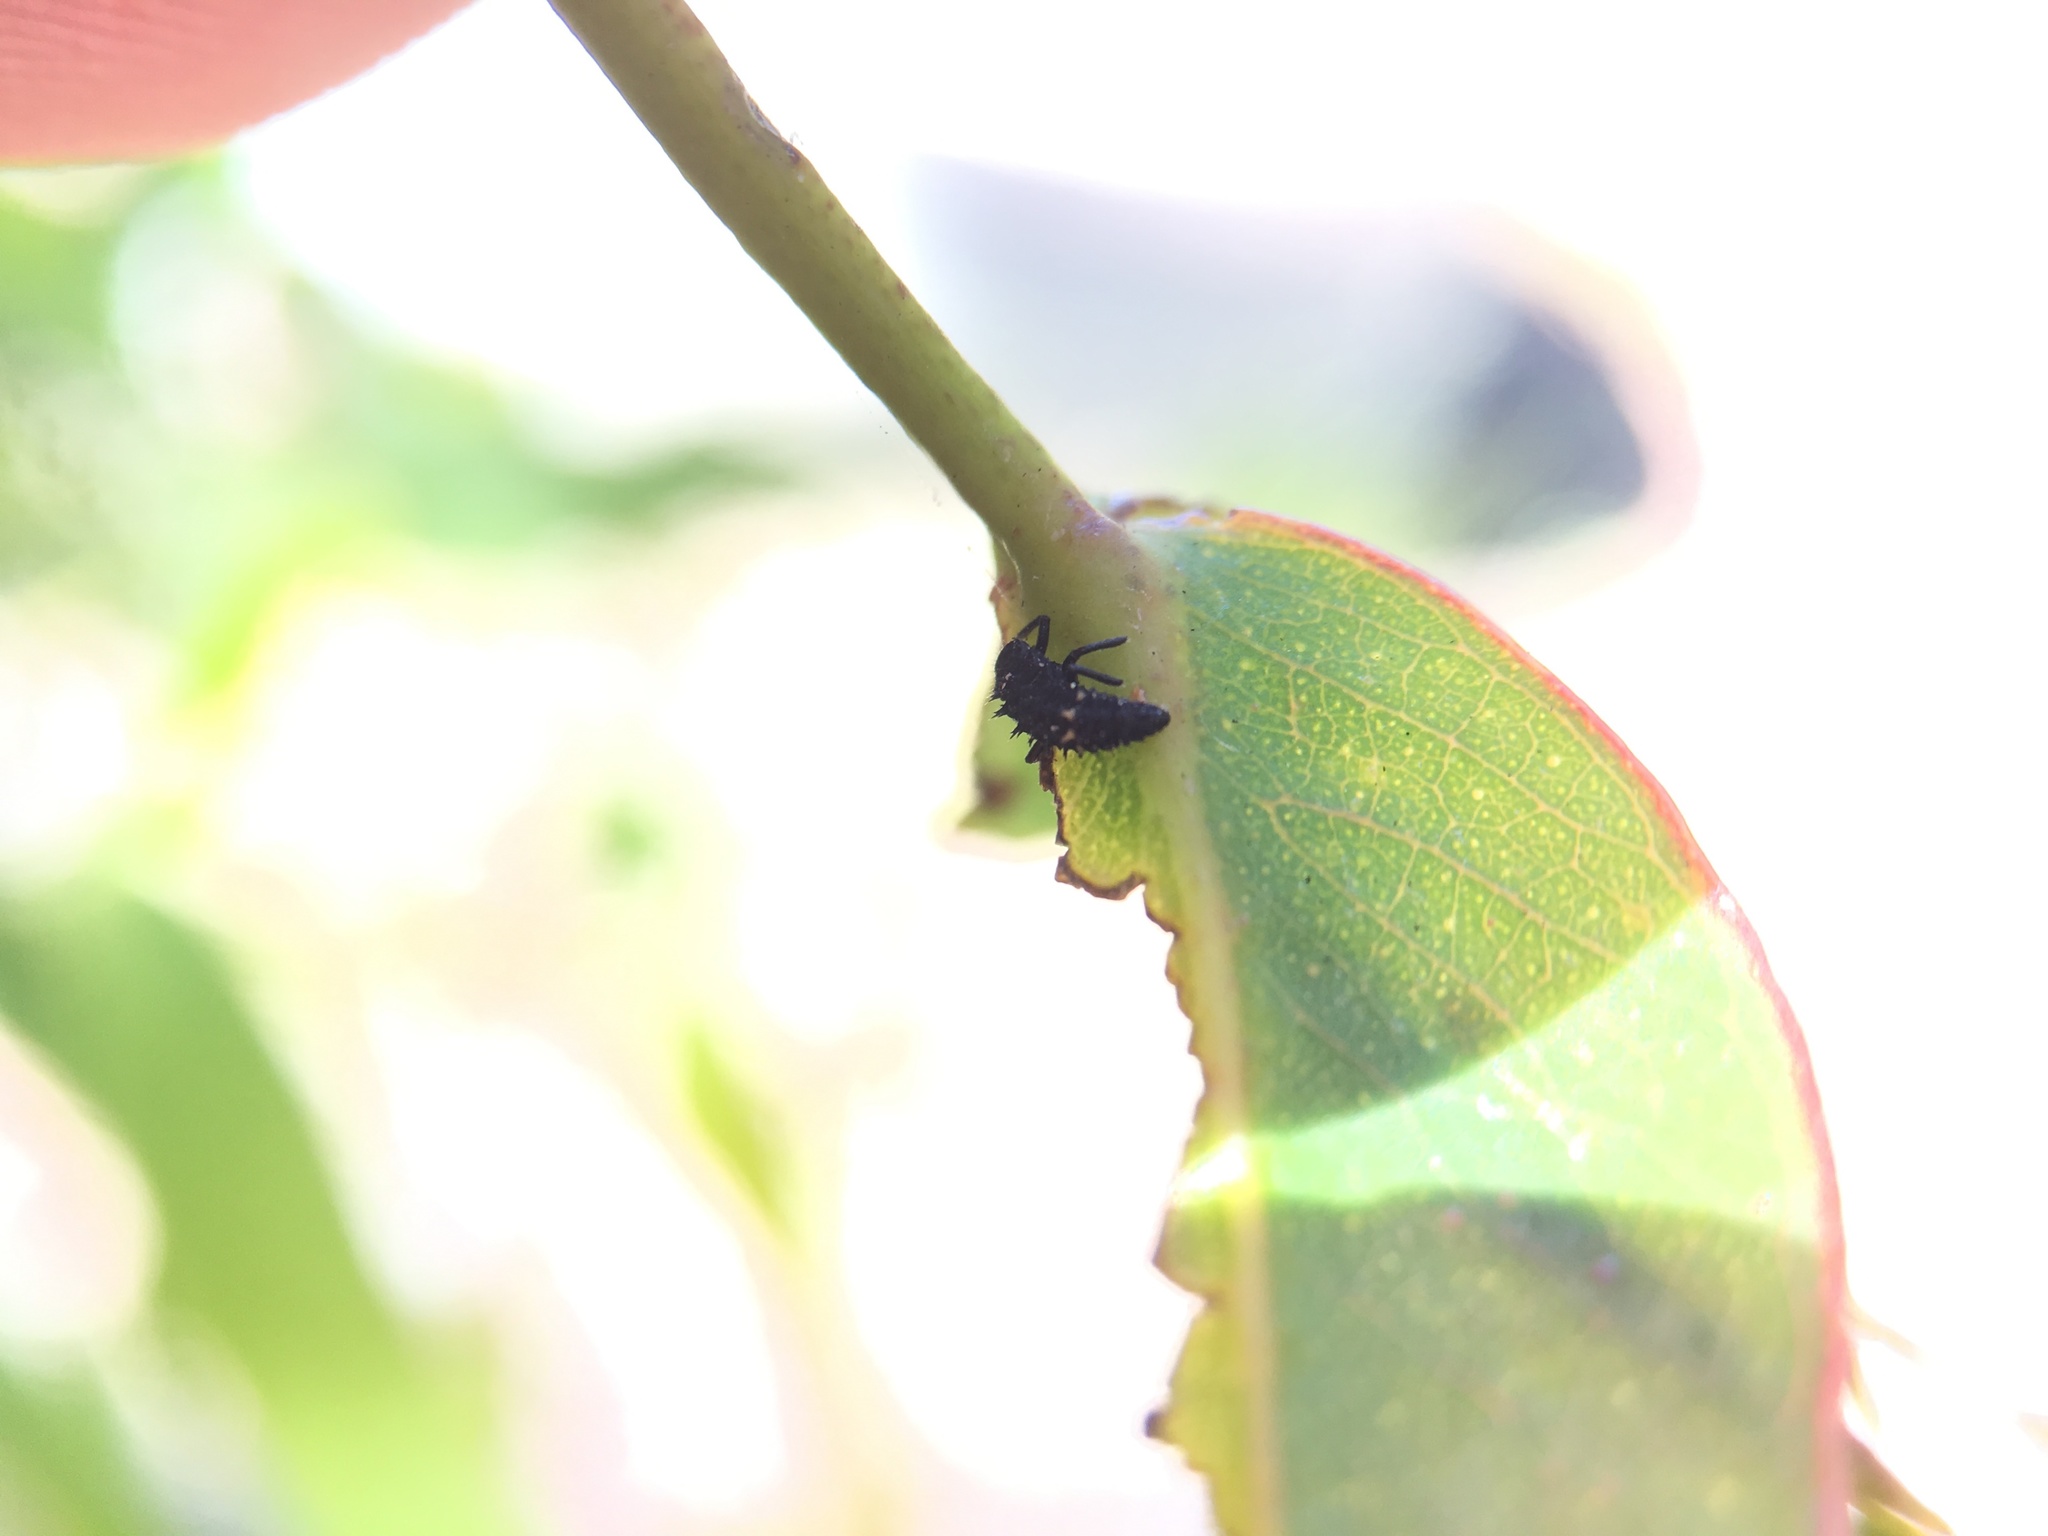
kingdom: Animalia
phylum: Arthropoda
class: Insecta
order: Coleoptera
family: Coccinellidae
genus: Harmonia
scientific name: Harmonia conformis
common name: Common spotted ladybird beetle
